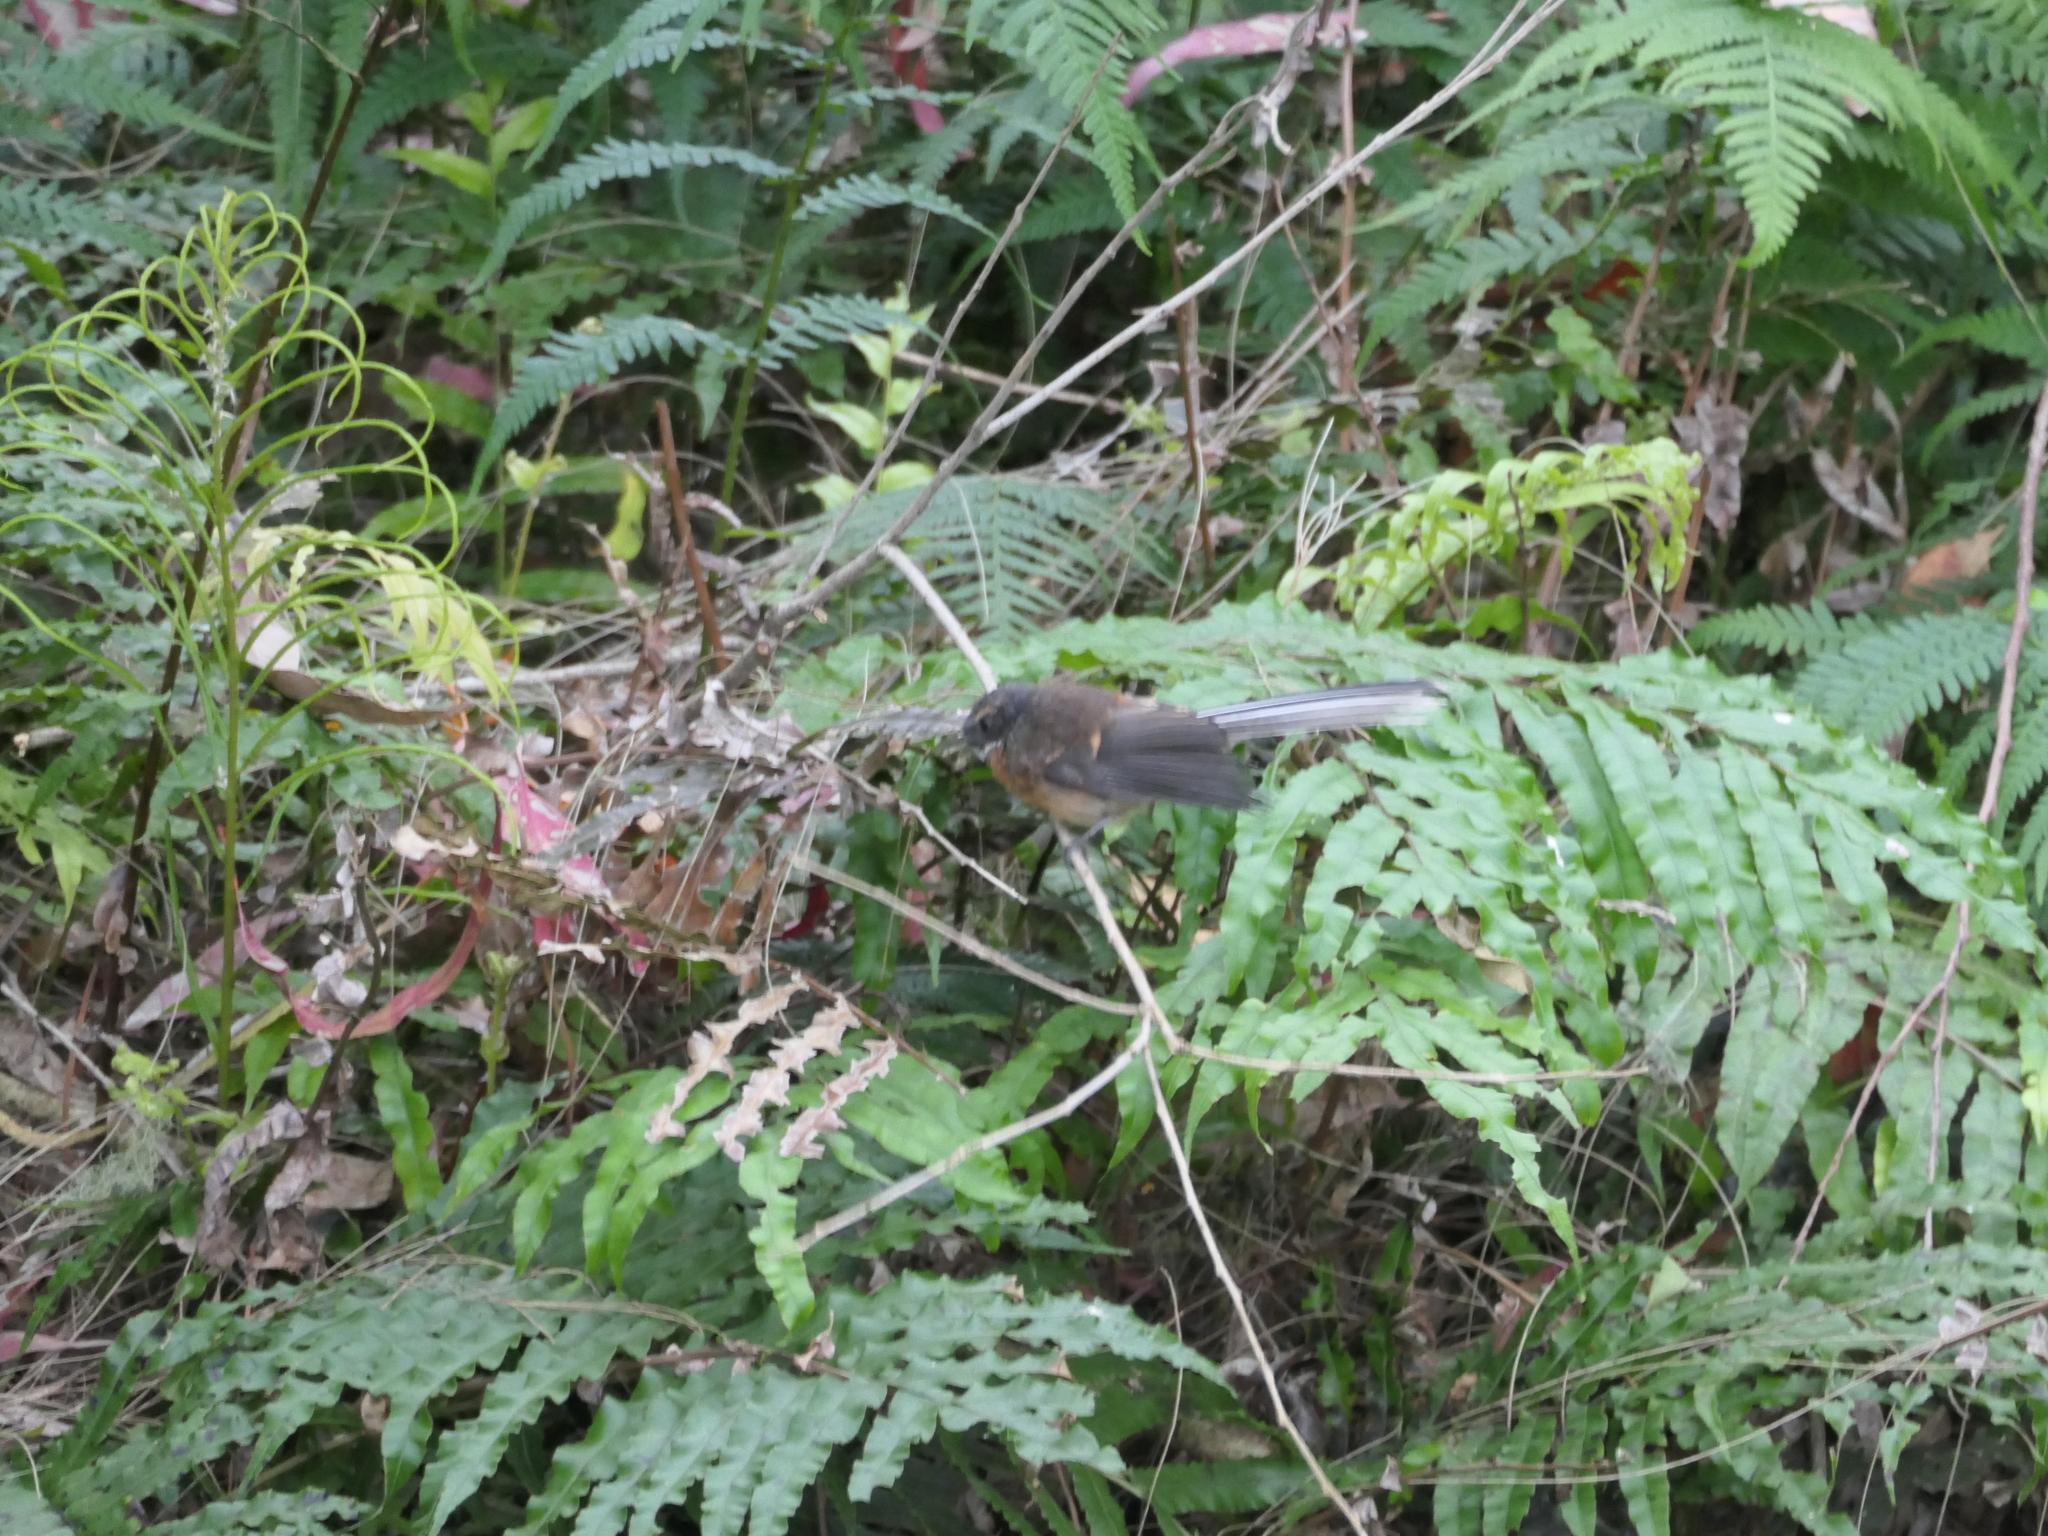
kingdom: Animalia
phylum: Chordata
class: Aves
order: Passeriformes
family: Rhipiduridae
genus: Rhipidura
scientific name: Rhipidura fuliginosa
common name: New zealand fantail
